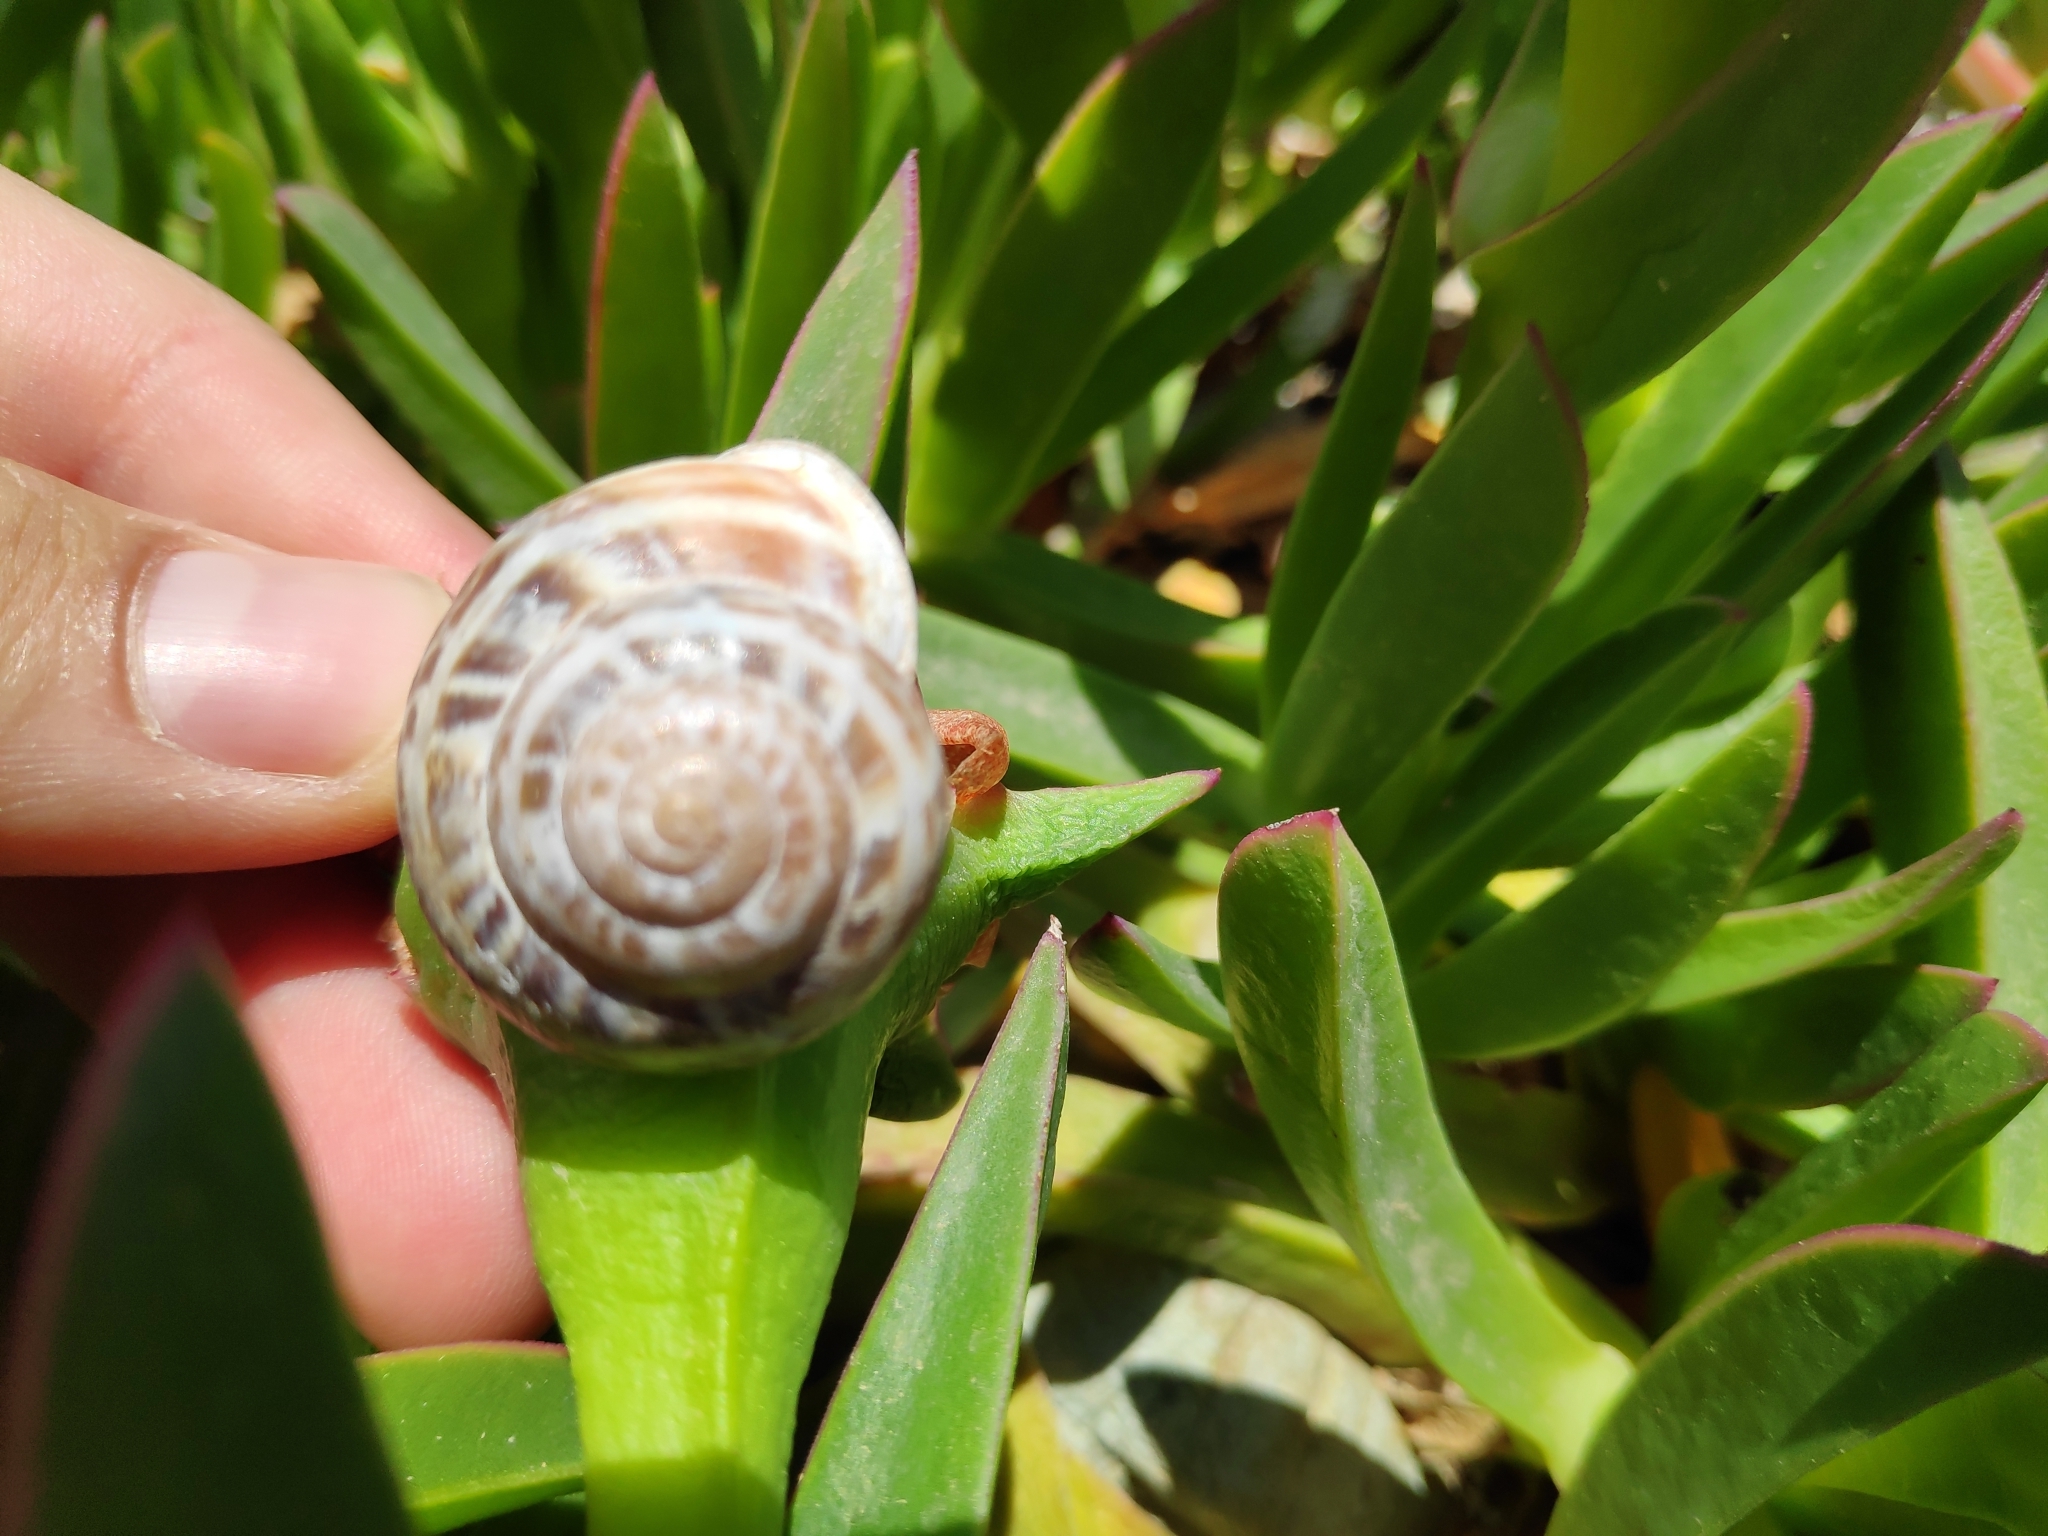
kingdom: Animalia
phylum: Mollusca
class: Gastropoda
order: Stylommatophora
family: Helicidae
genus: Eobania
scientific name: Eobania vermiculata
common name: Chocolateband snail
